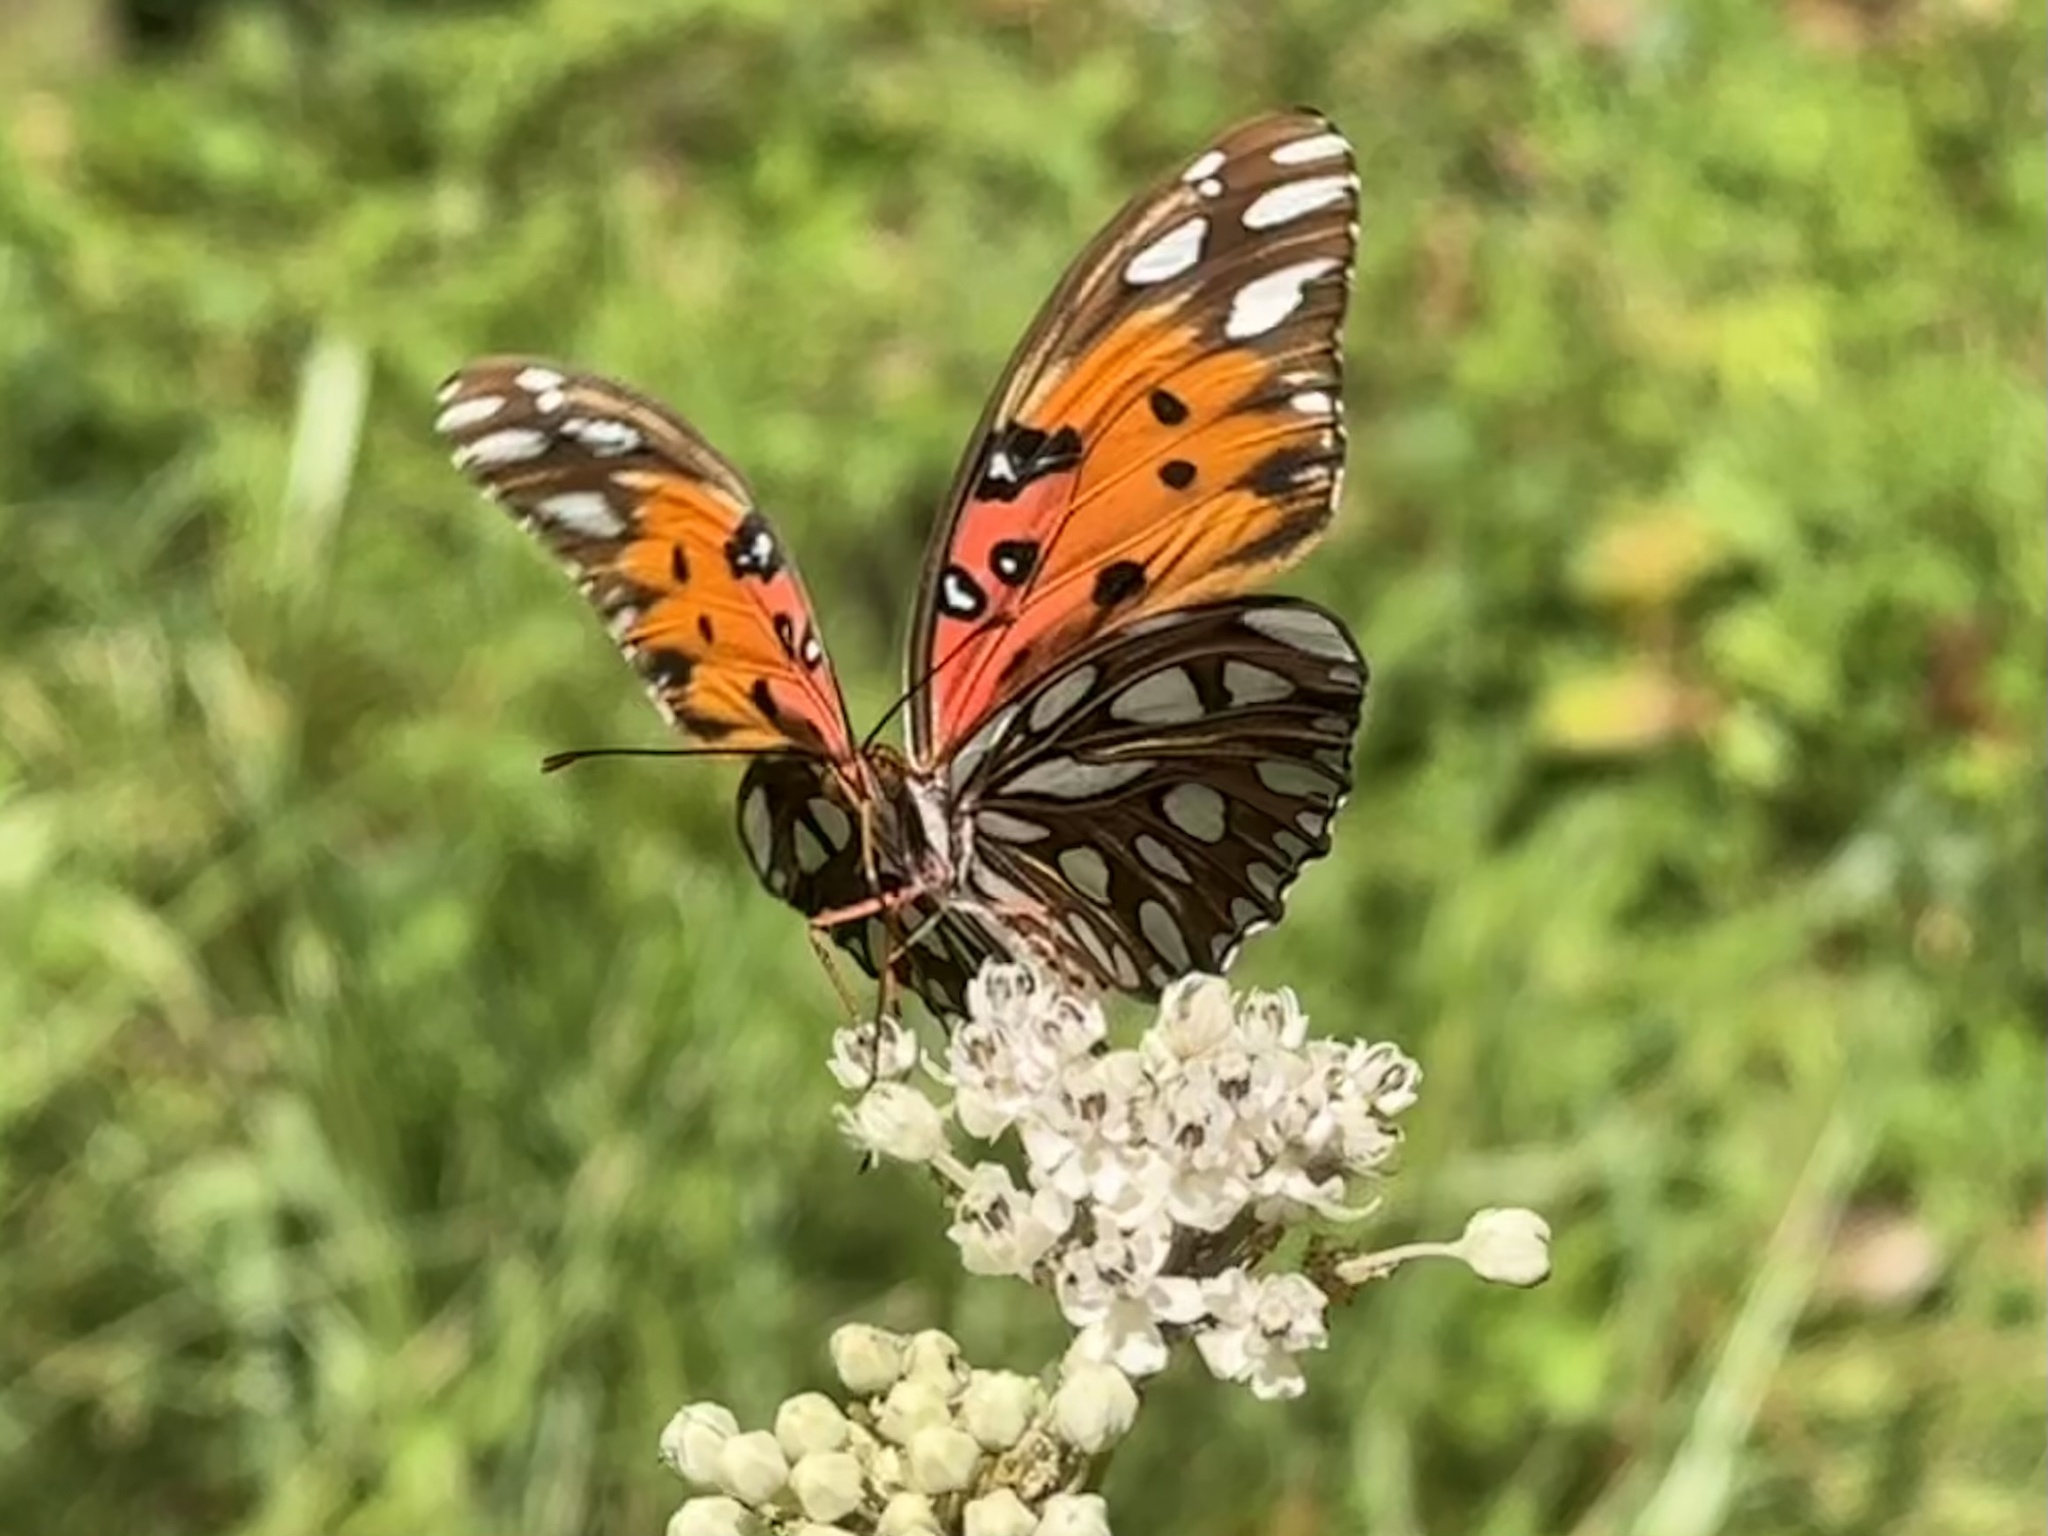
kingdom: Animalia
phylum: Arthropoda
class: Insecta
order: Lepidoptera
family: Nymphalidae
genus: Dione
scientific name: Dione vanillae
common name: Gulf fritillary
